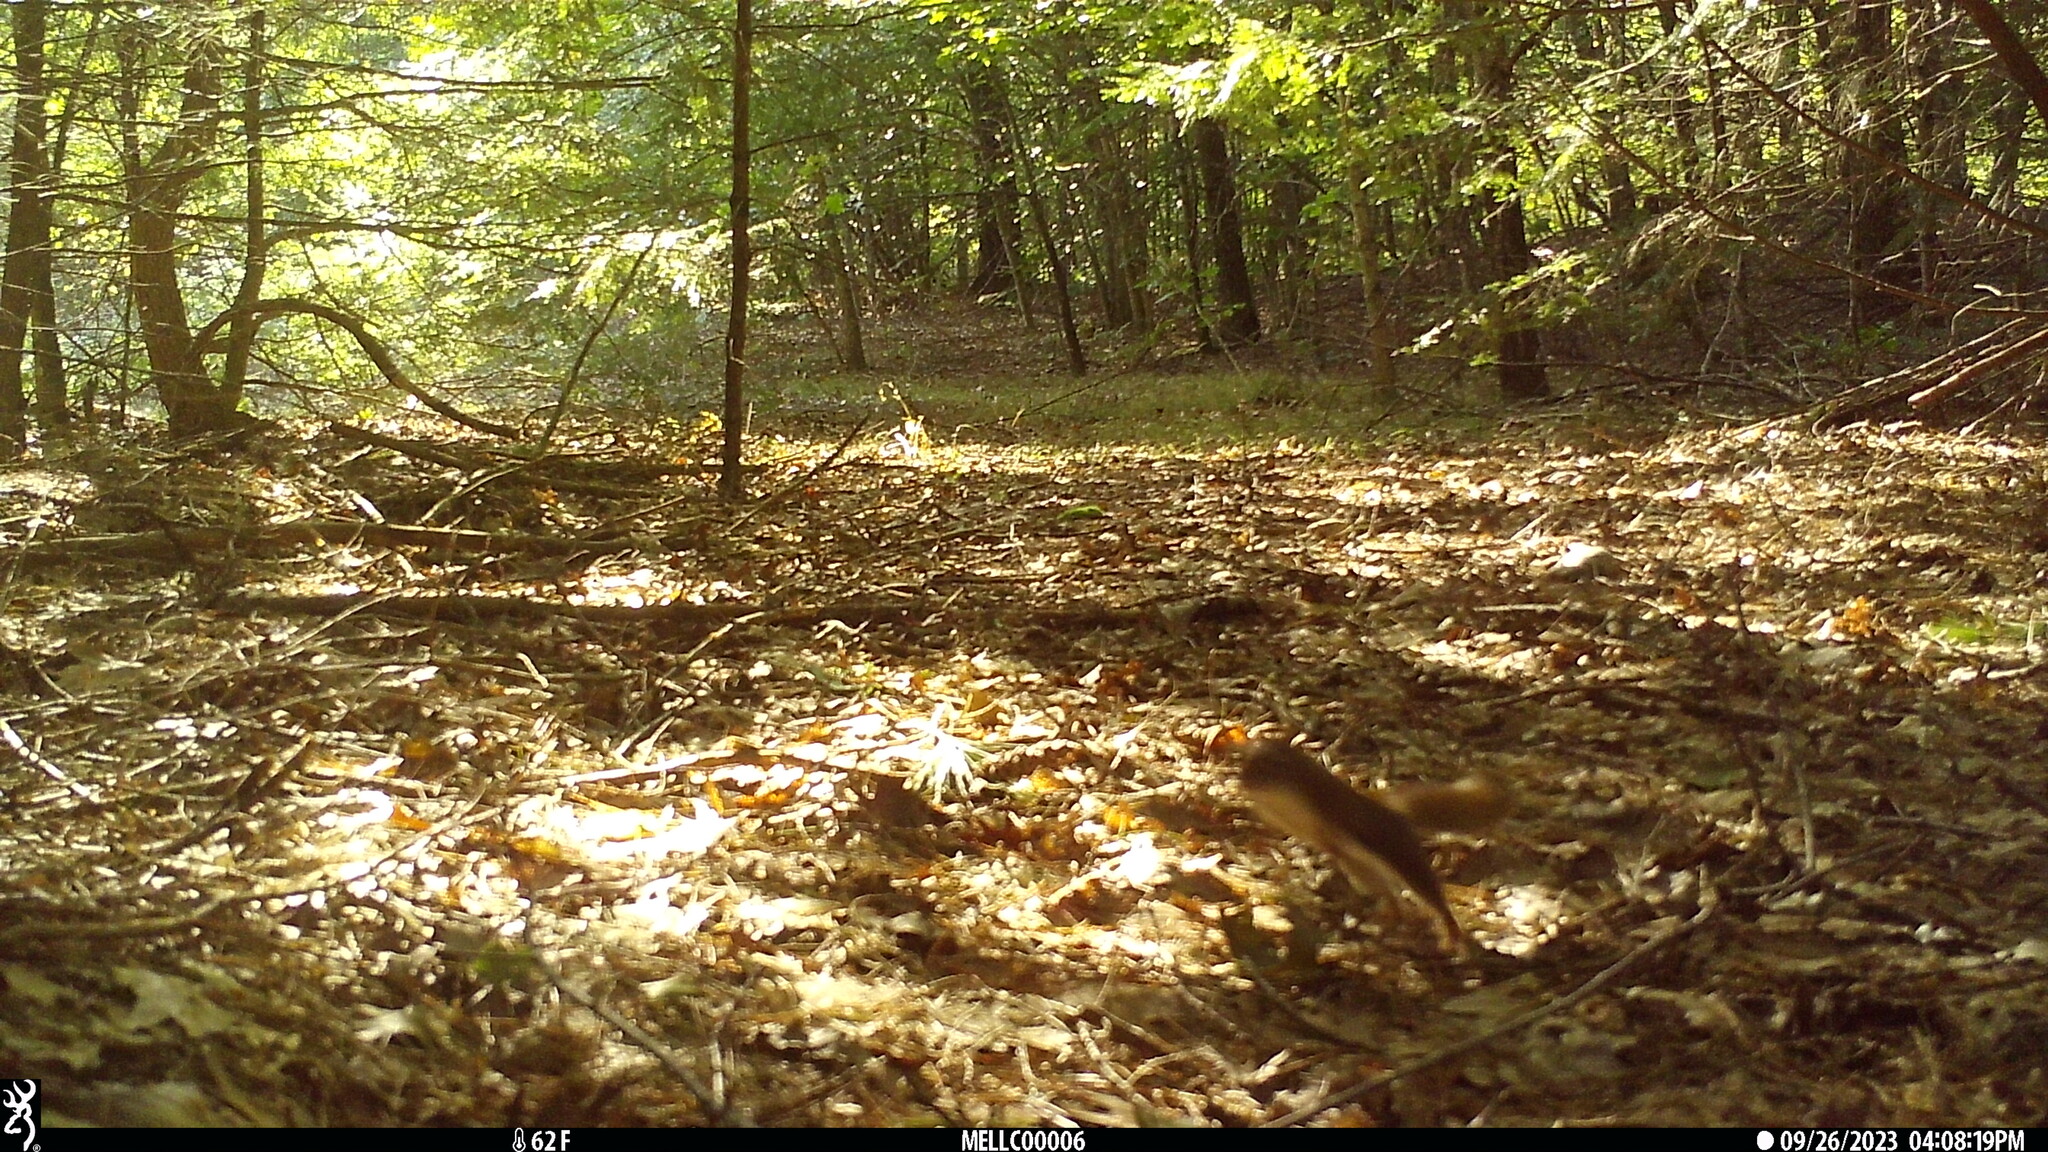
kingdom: Animalia
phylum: Chordata
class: Mammalia
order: Rodentia
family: Sciuridae
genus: Tamiasciurus
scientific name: Tamiasciurus hudsonicus
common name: Red squirrel
